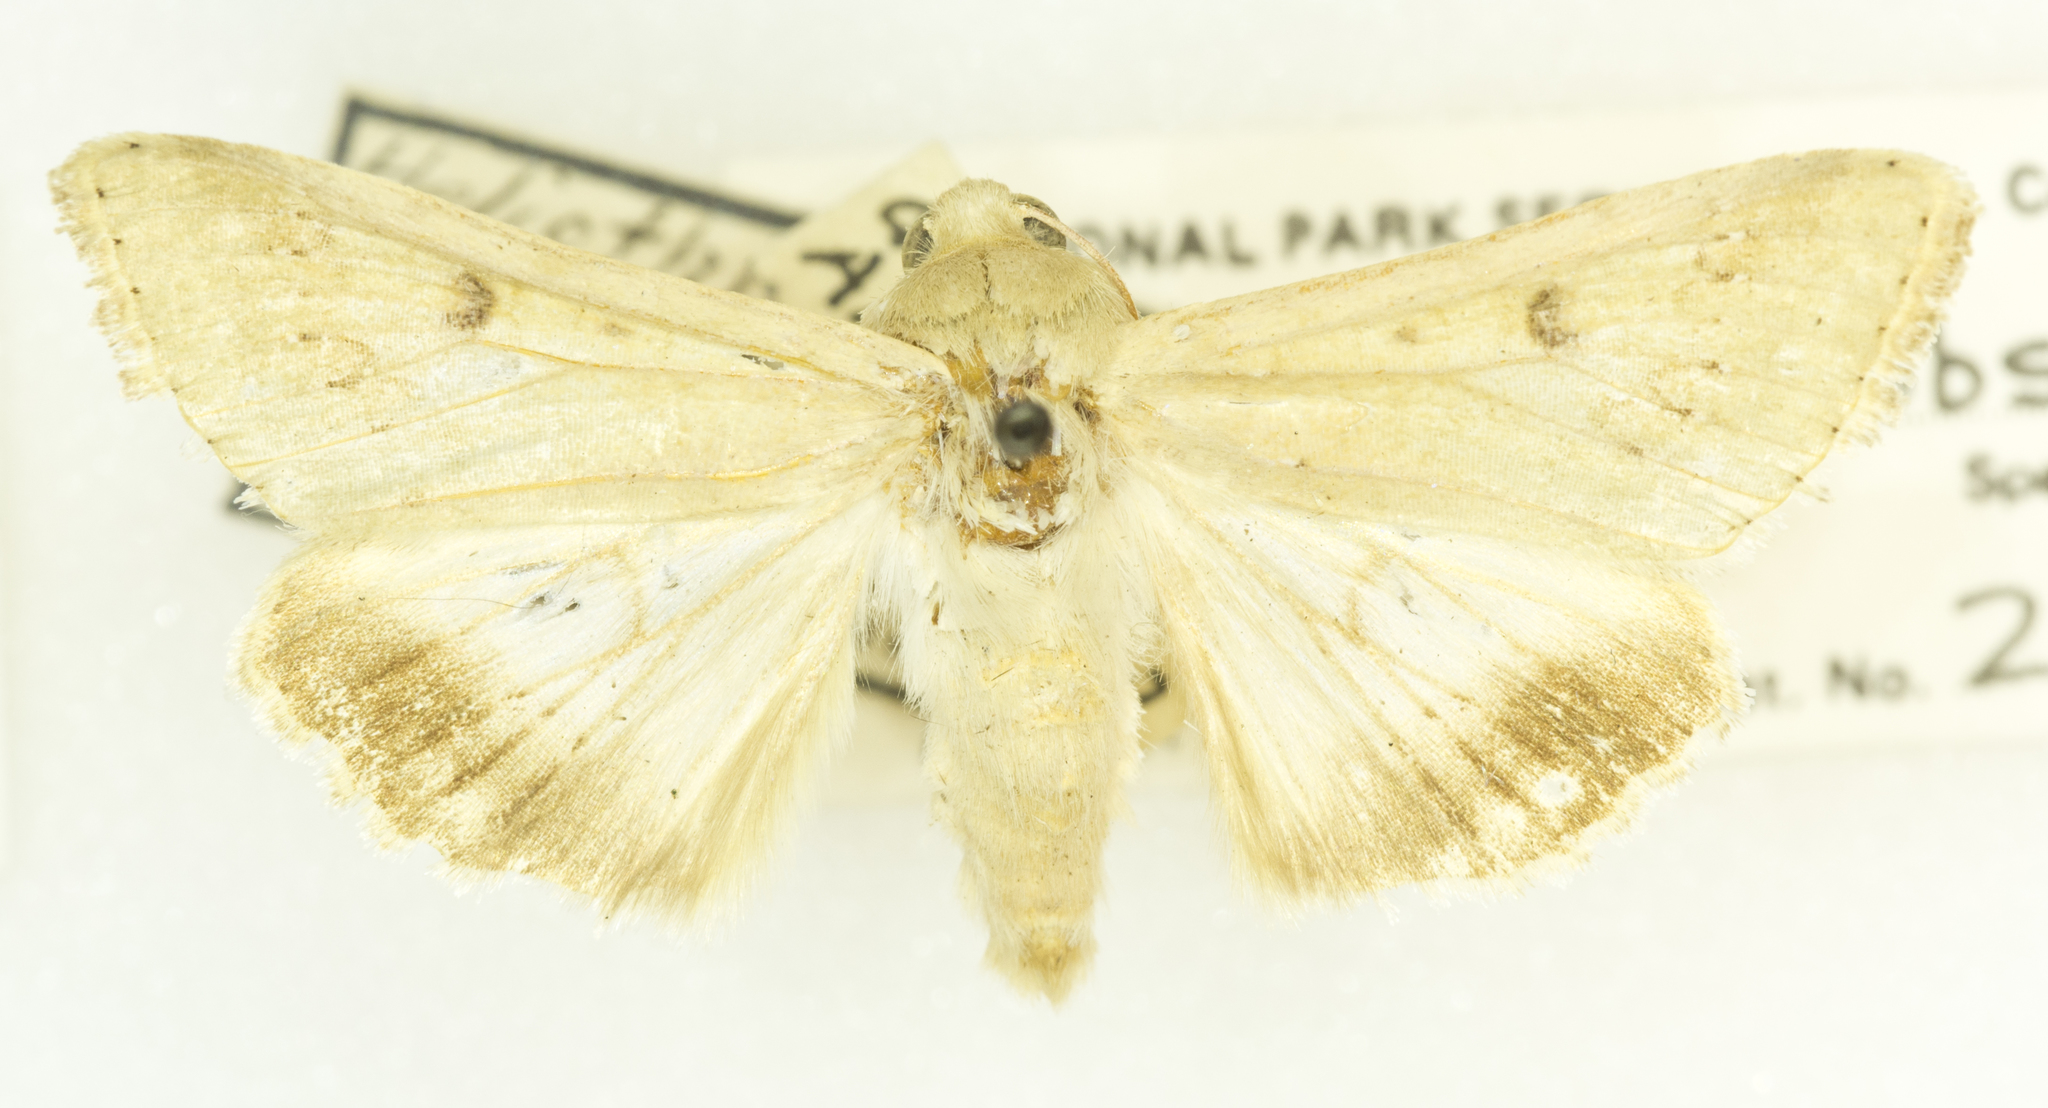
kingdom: Animalia
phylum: Arthropoda
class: Insecta
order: Lepidoptera
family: Noctuidae
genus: Helicoverpa
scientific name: Helicoverpa zea
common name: Bollworm
